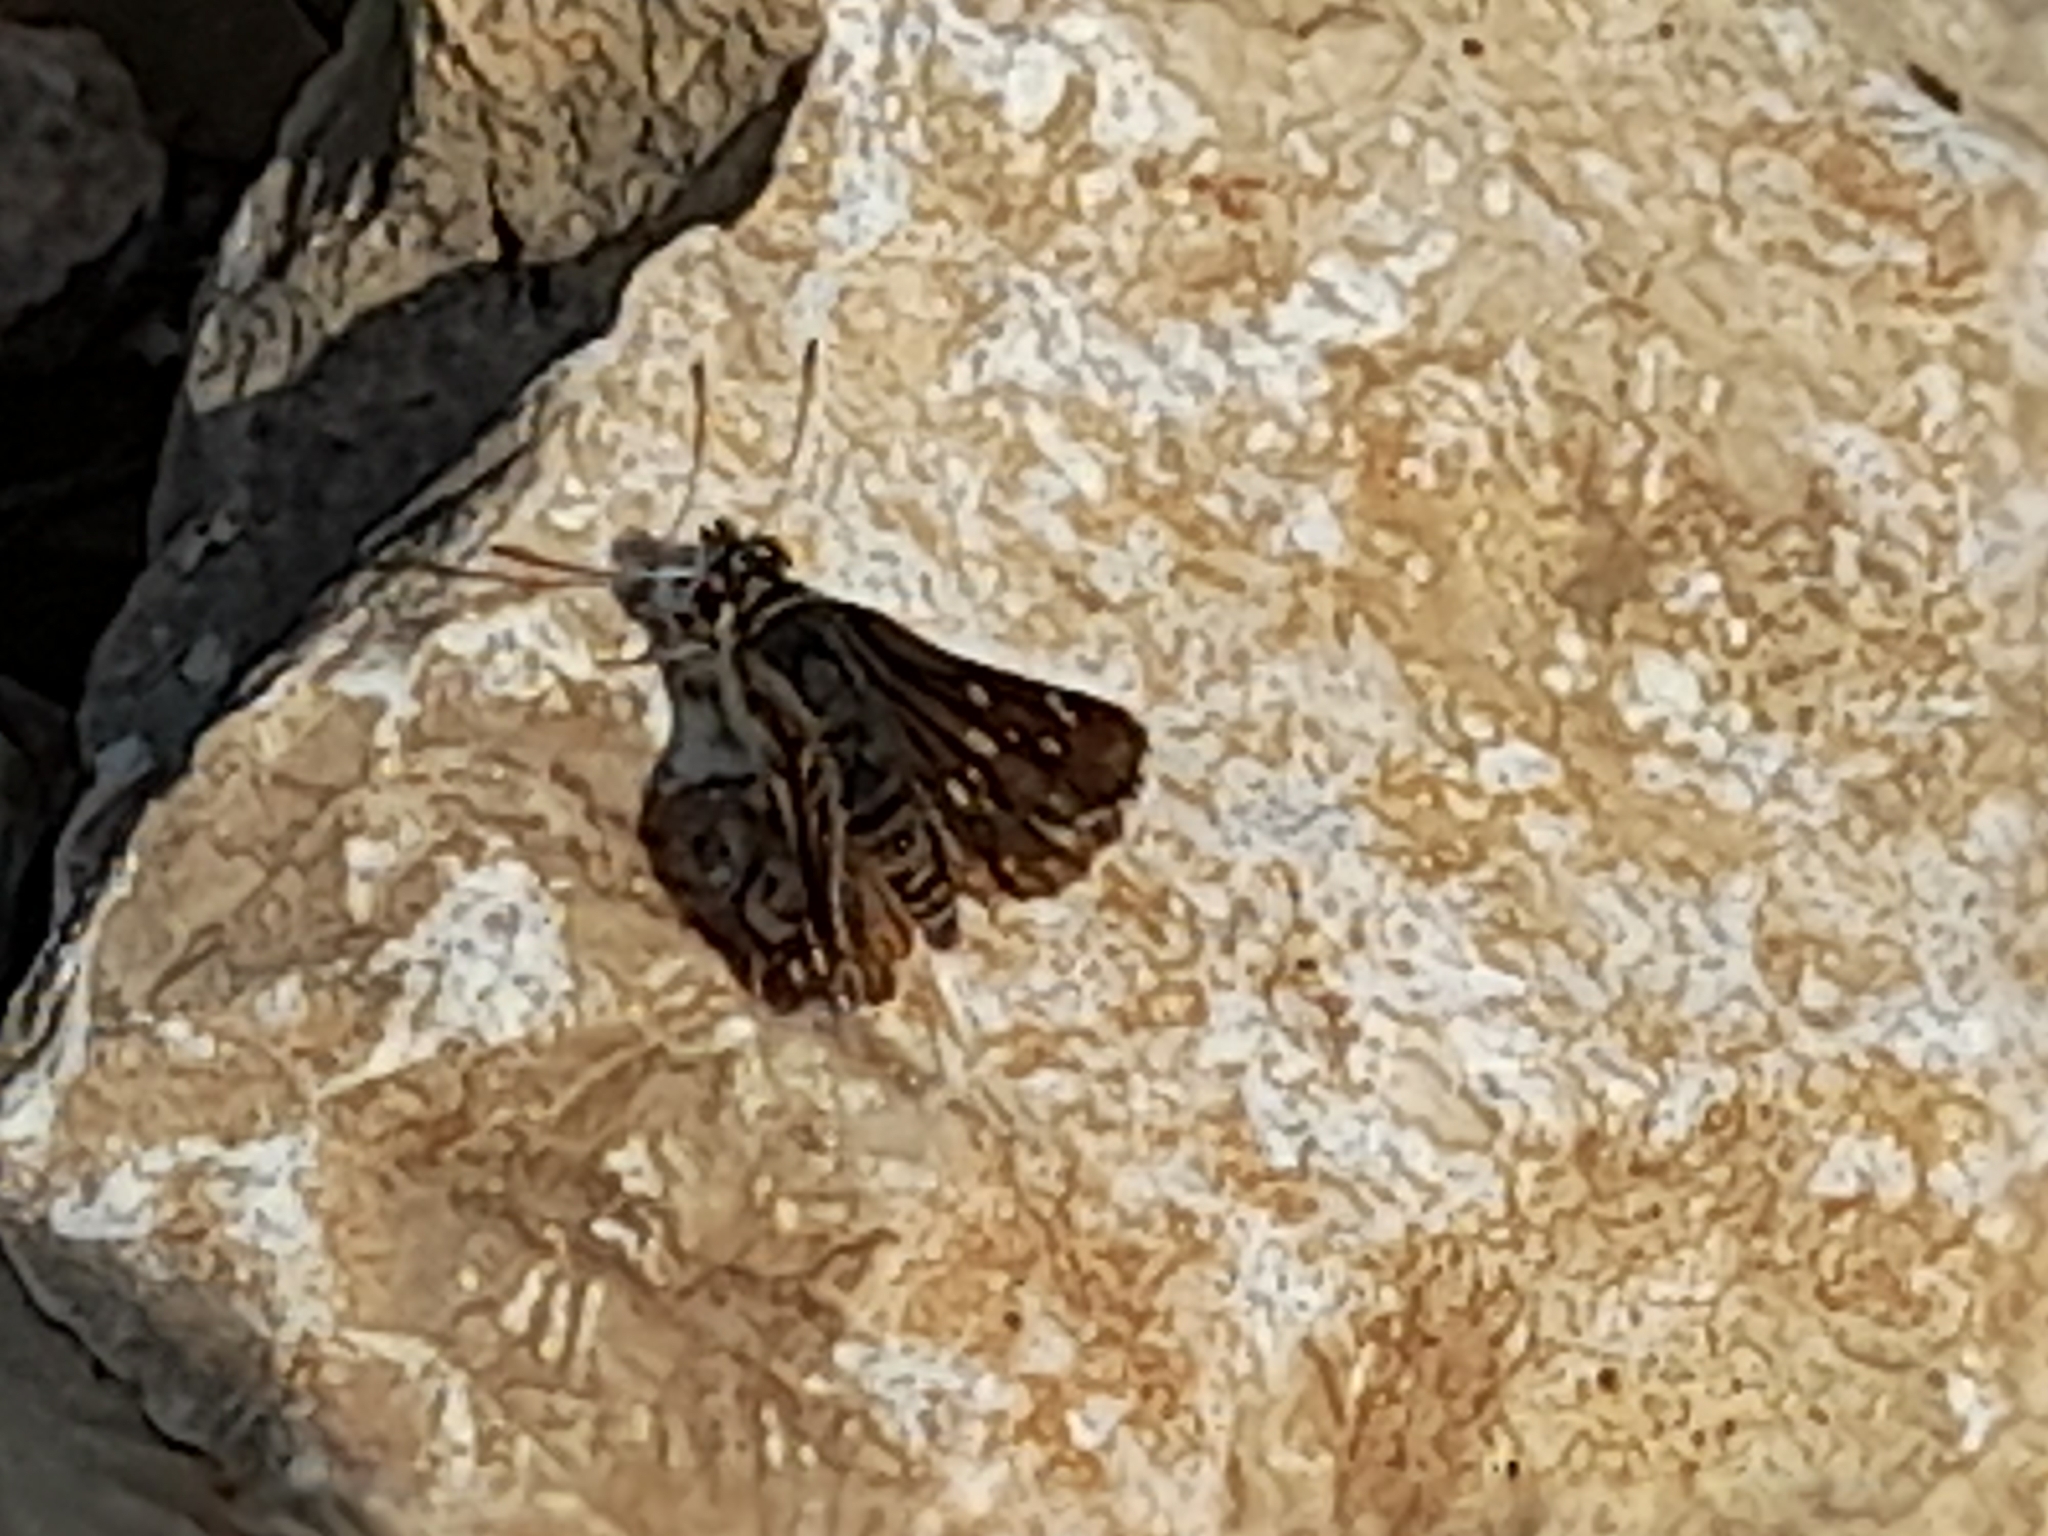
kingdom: Animalia
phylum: Arthropoda
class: Insecta
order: Lepidoptera
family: Hesperiidae
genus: Spialia
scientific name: Spialia sertorius
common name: Red underwing skipper
